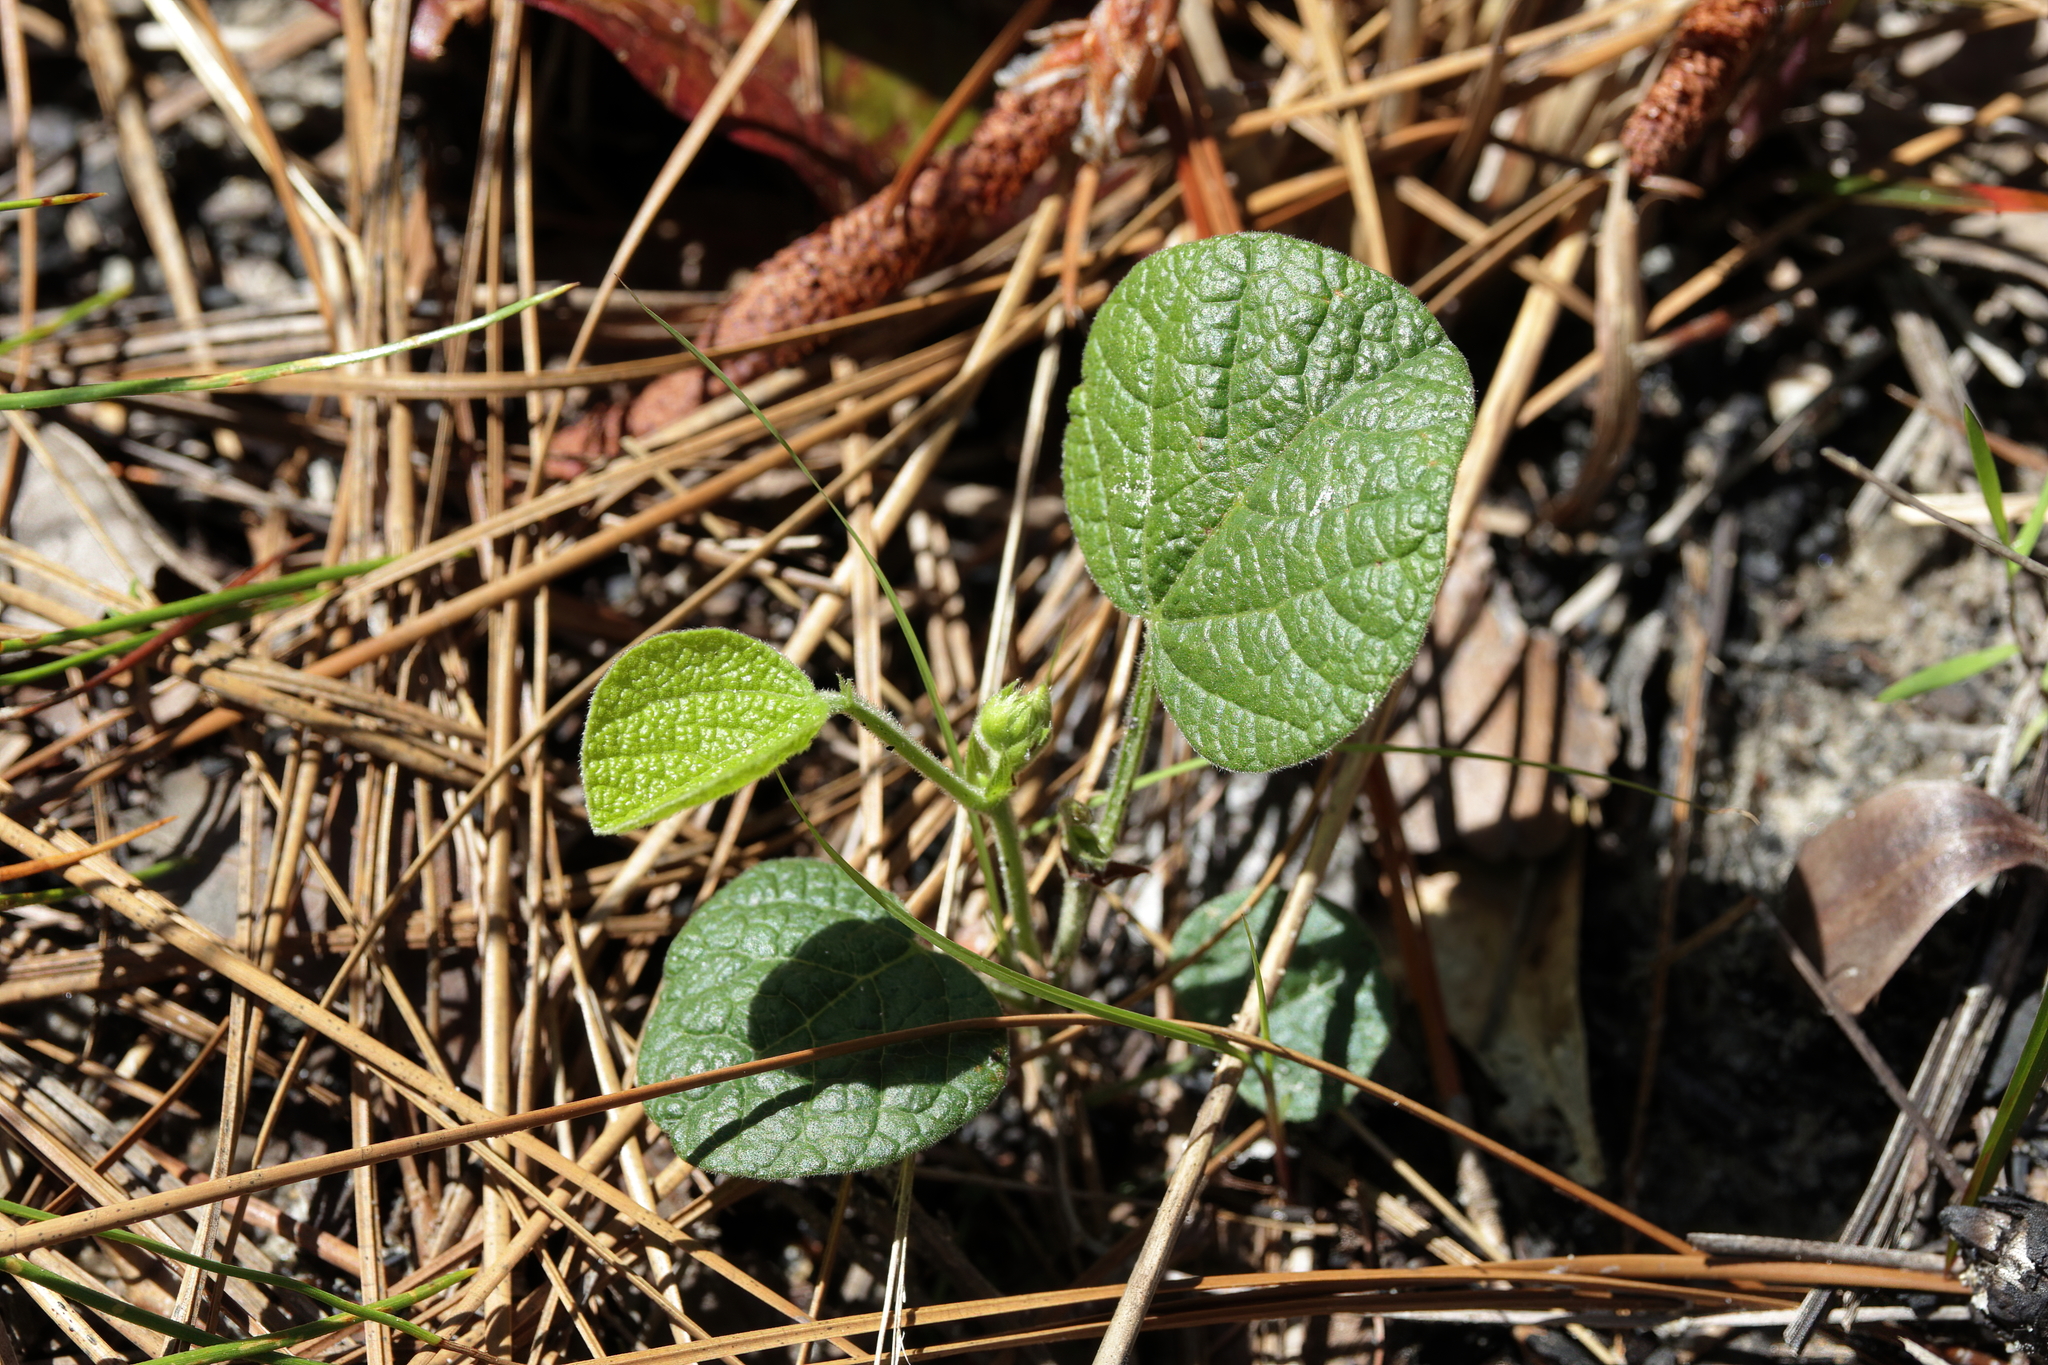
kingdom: Plantae
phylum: Tracheophyta
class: Magnoliopsida
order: Fabales
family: Fabaceae
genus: Rhynchosia
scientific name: Rhynchosia reniformis
